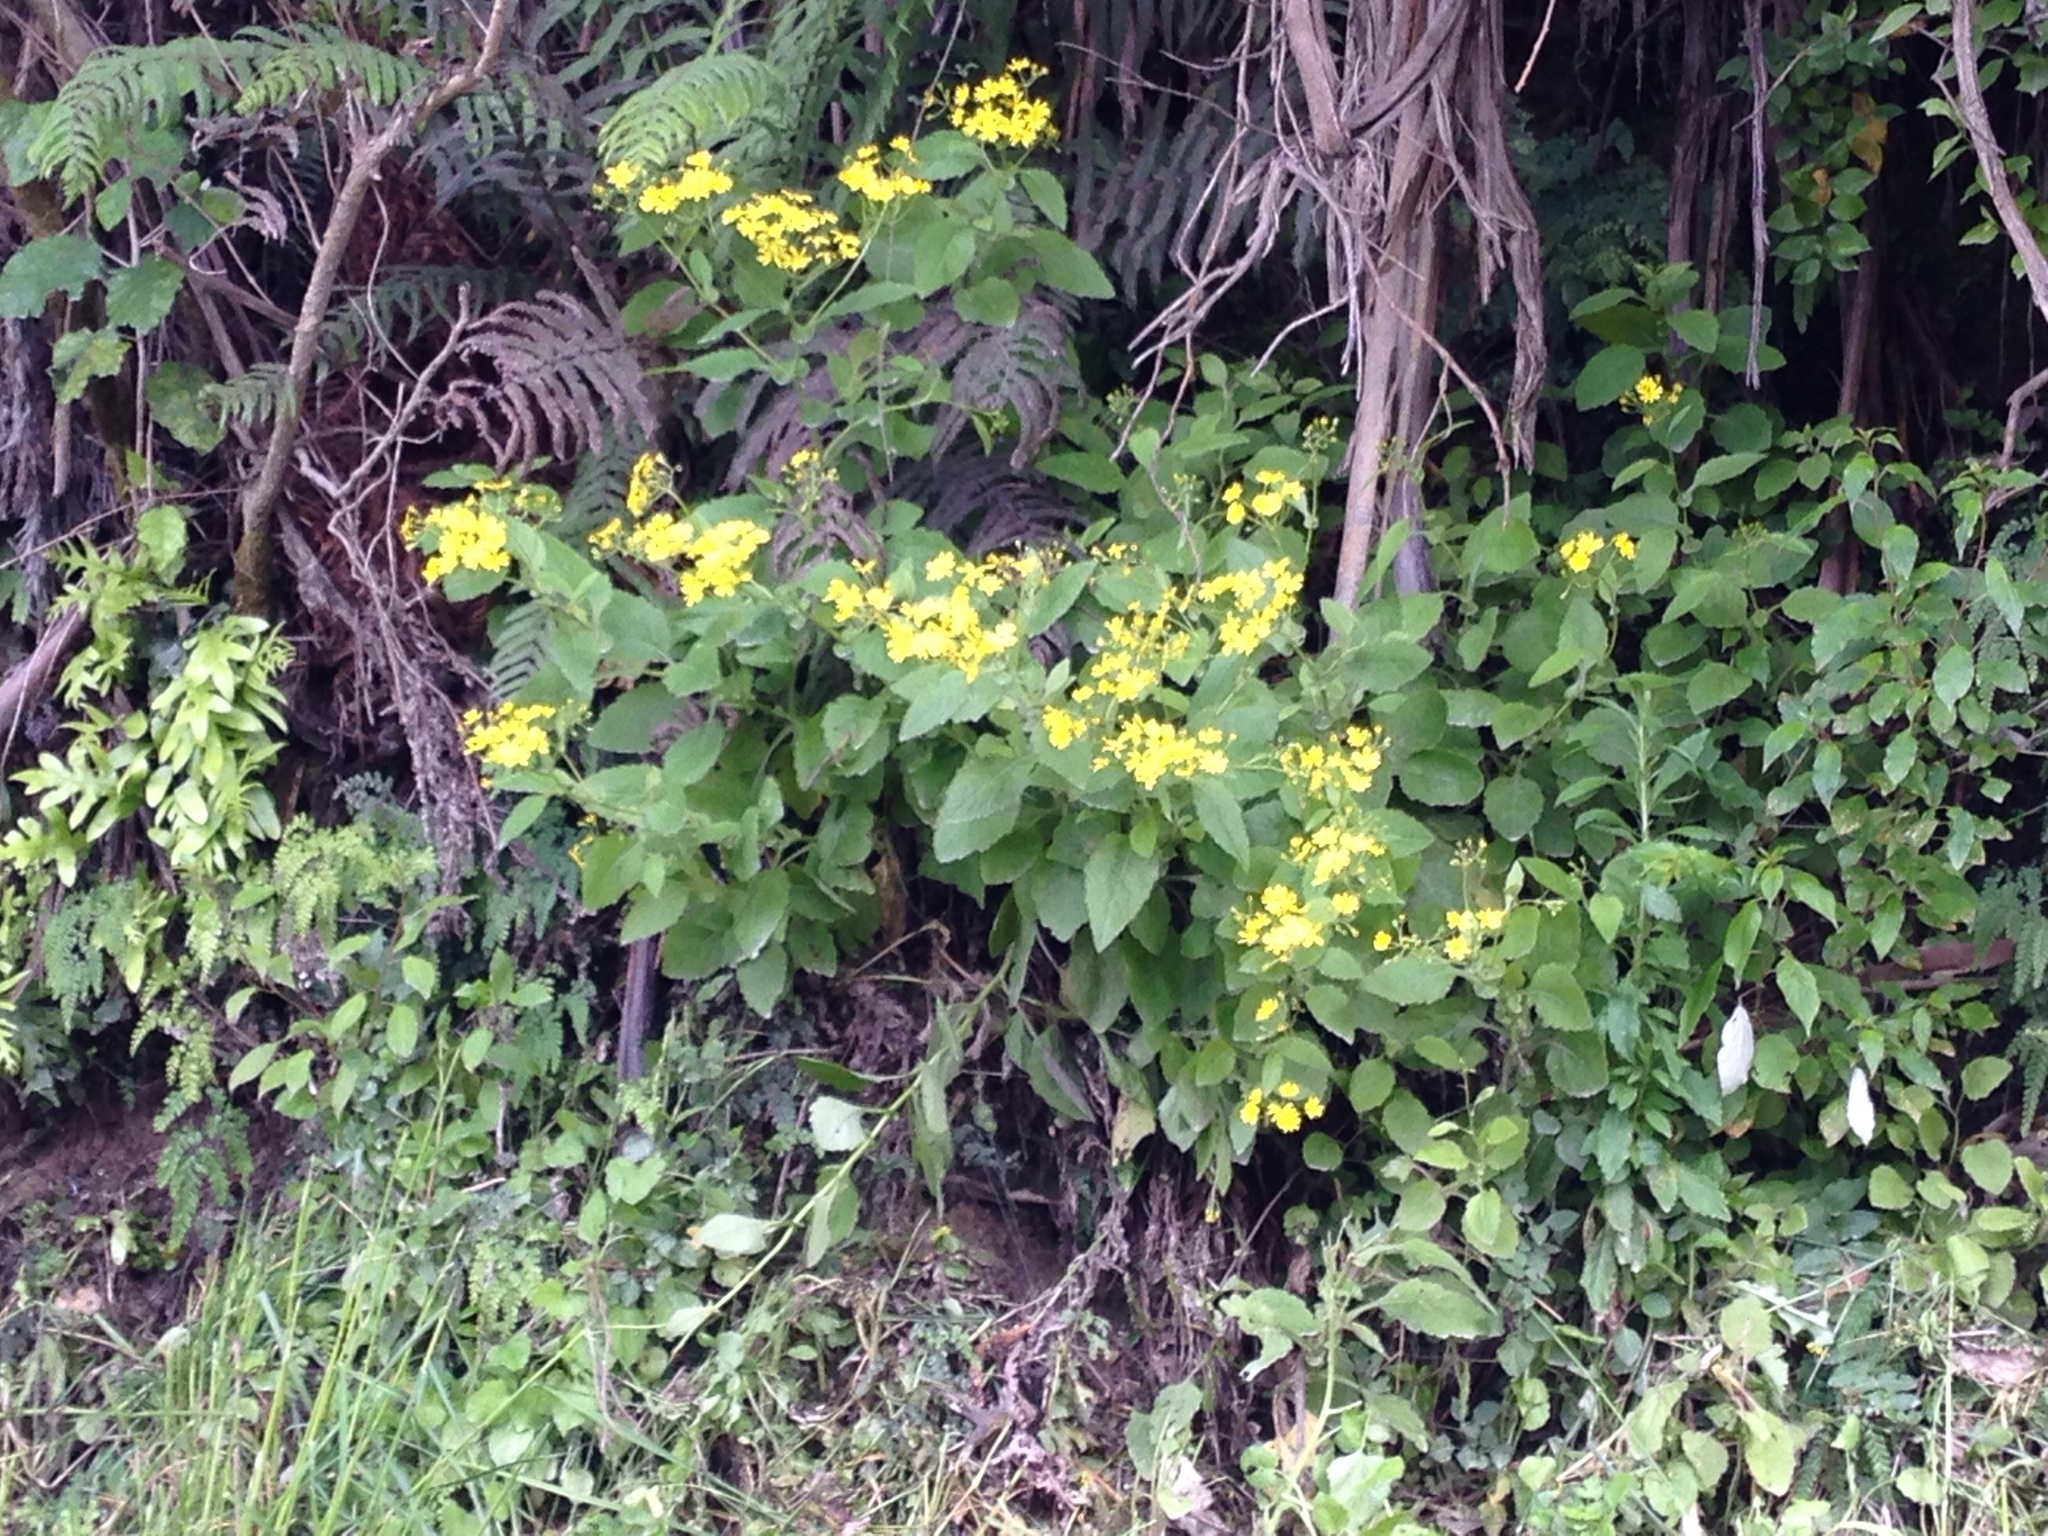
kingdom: Plantae
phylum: Tracheophyta
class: Magnoliopsida
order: Asterales
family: Asteraceae
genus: Senecio
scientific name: Senecio rufiglandulosus
